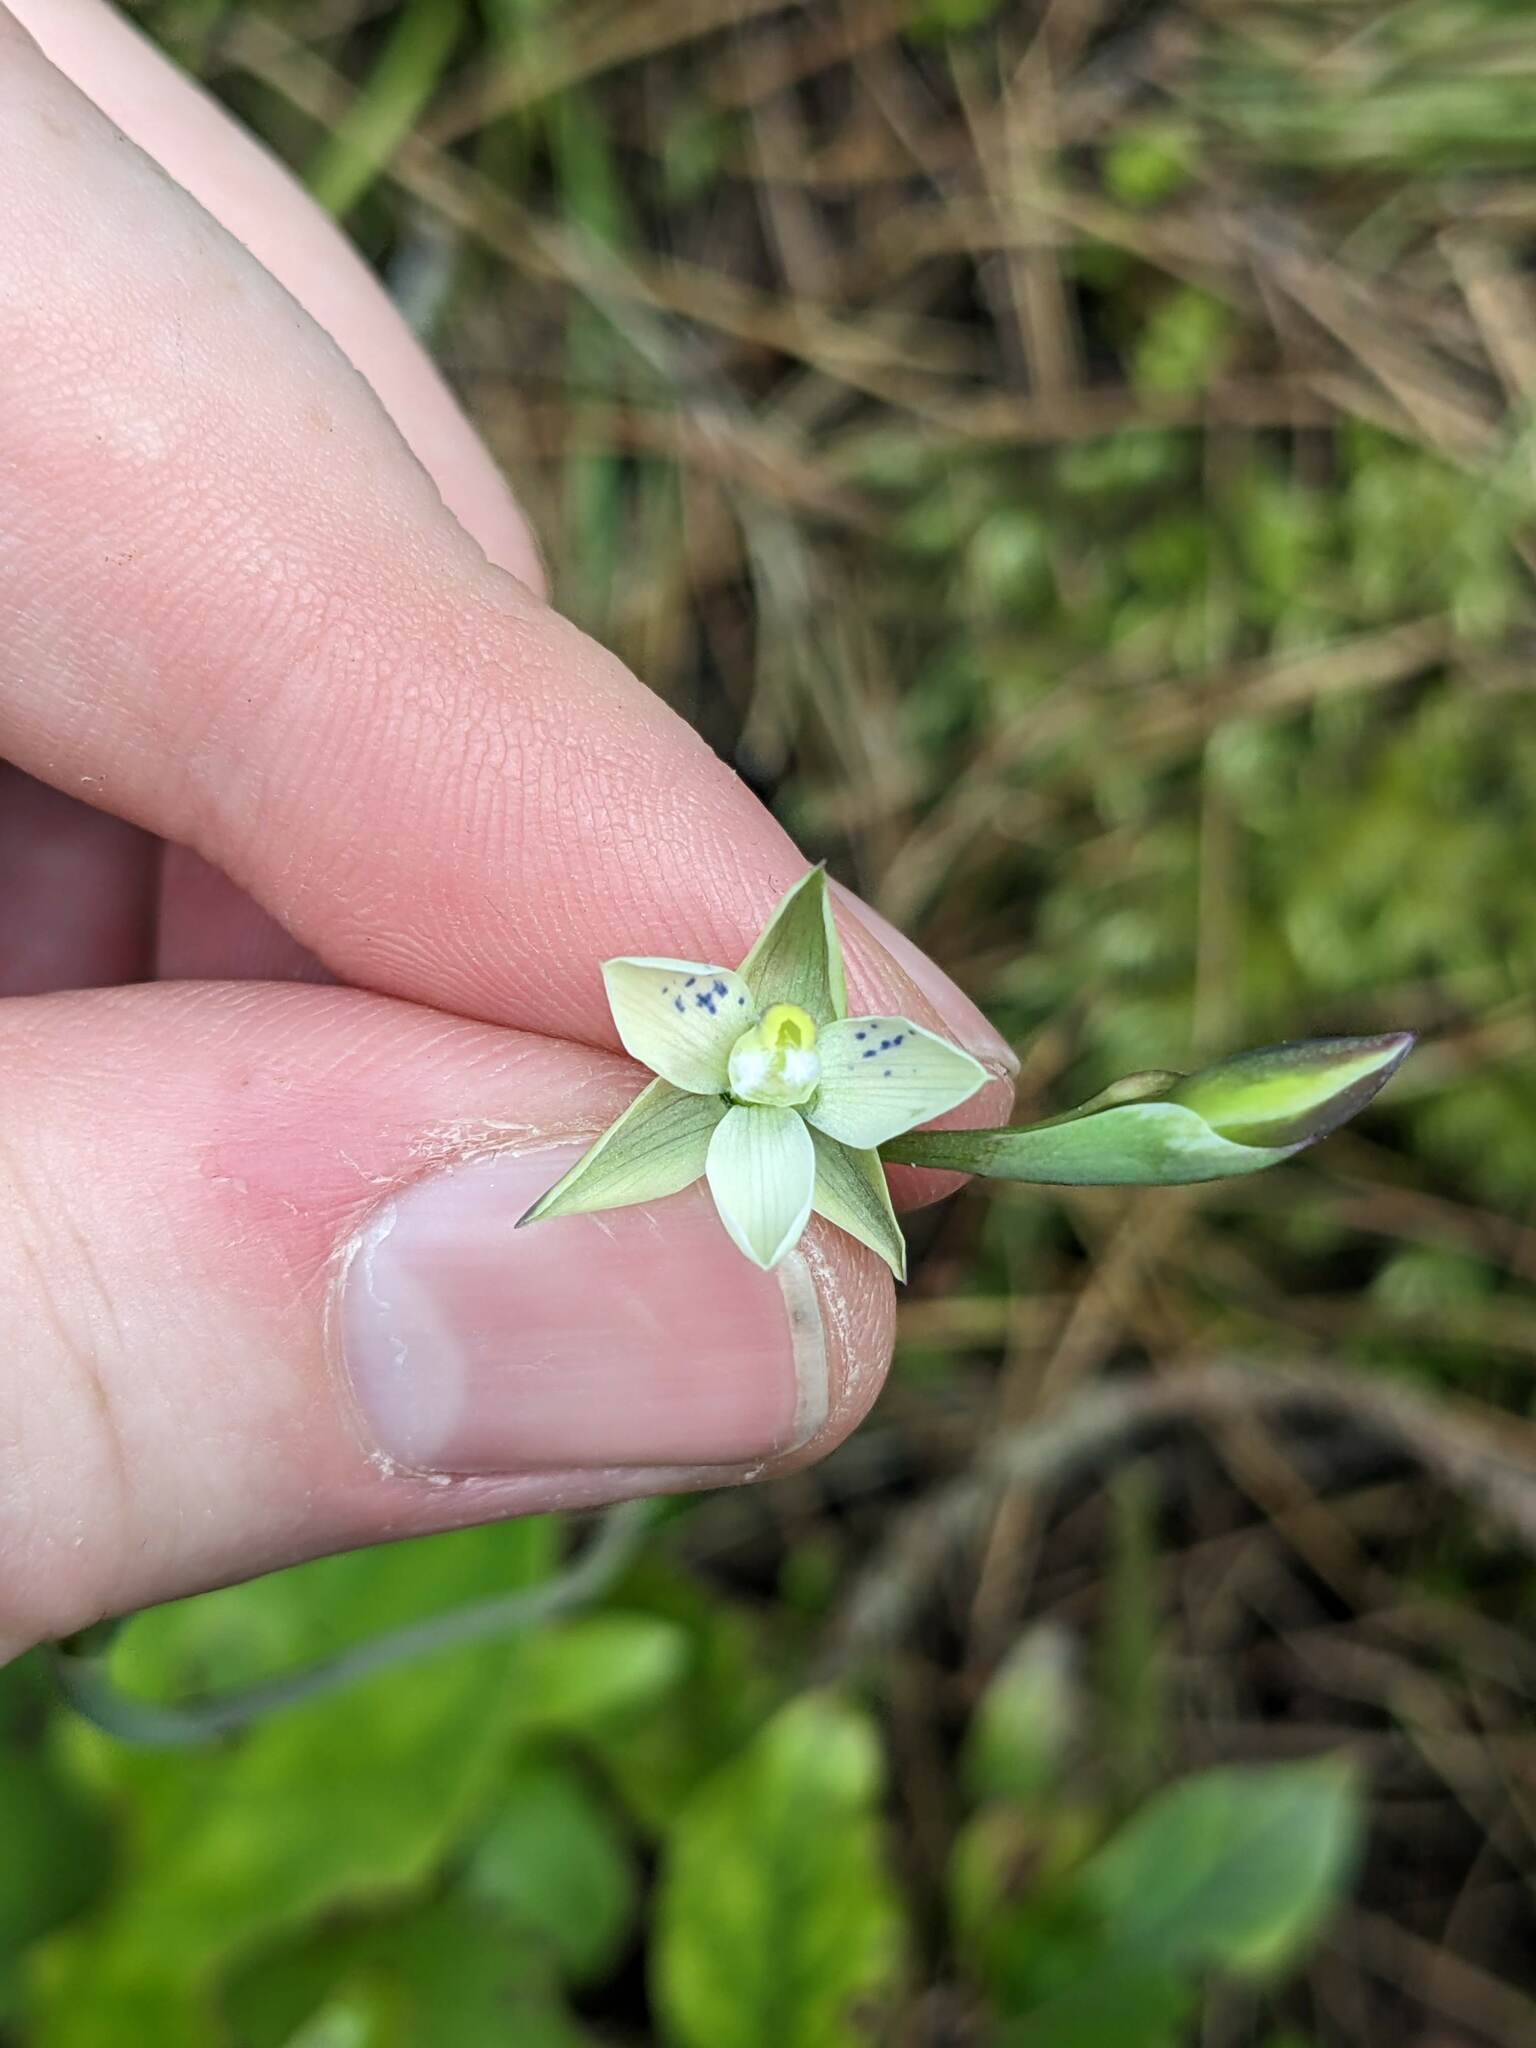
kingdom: Plantae
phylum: Tracheophyta
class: Liliopsida
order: Asparagales
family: Orchidaceae
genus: Thelymitra
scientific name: Thelymitra nervosa
